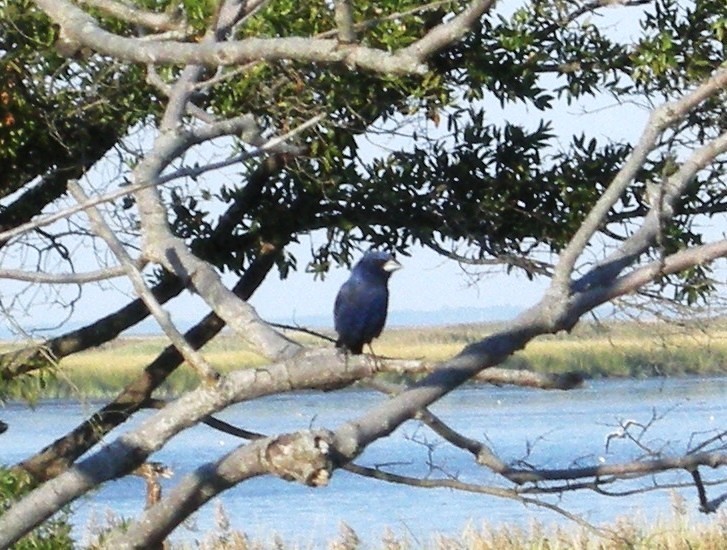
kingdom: Animalia
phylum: Chordata
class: Aves
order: Passeriformes
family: Cardinalidae
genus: Passerina
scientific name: Passerina caerulea
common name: Blue grosbeak
